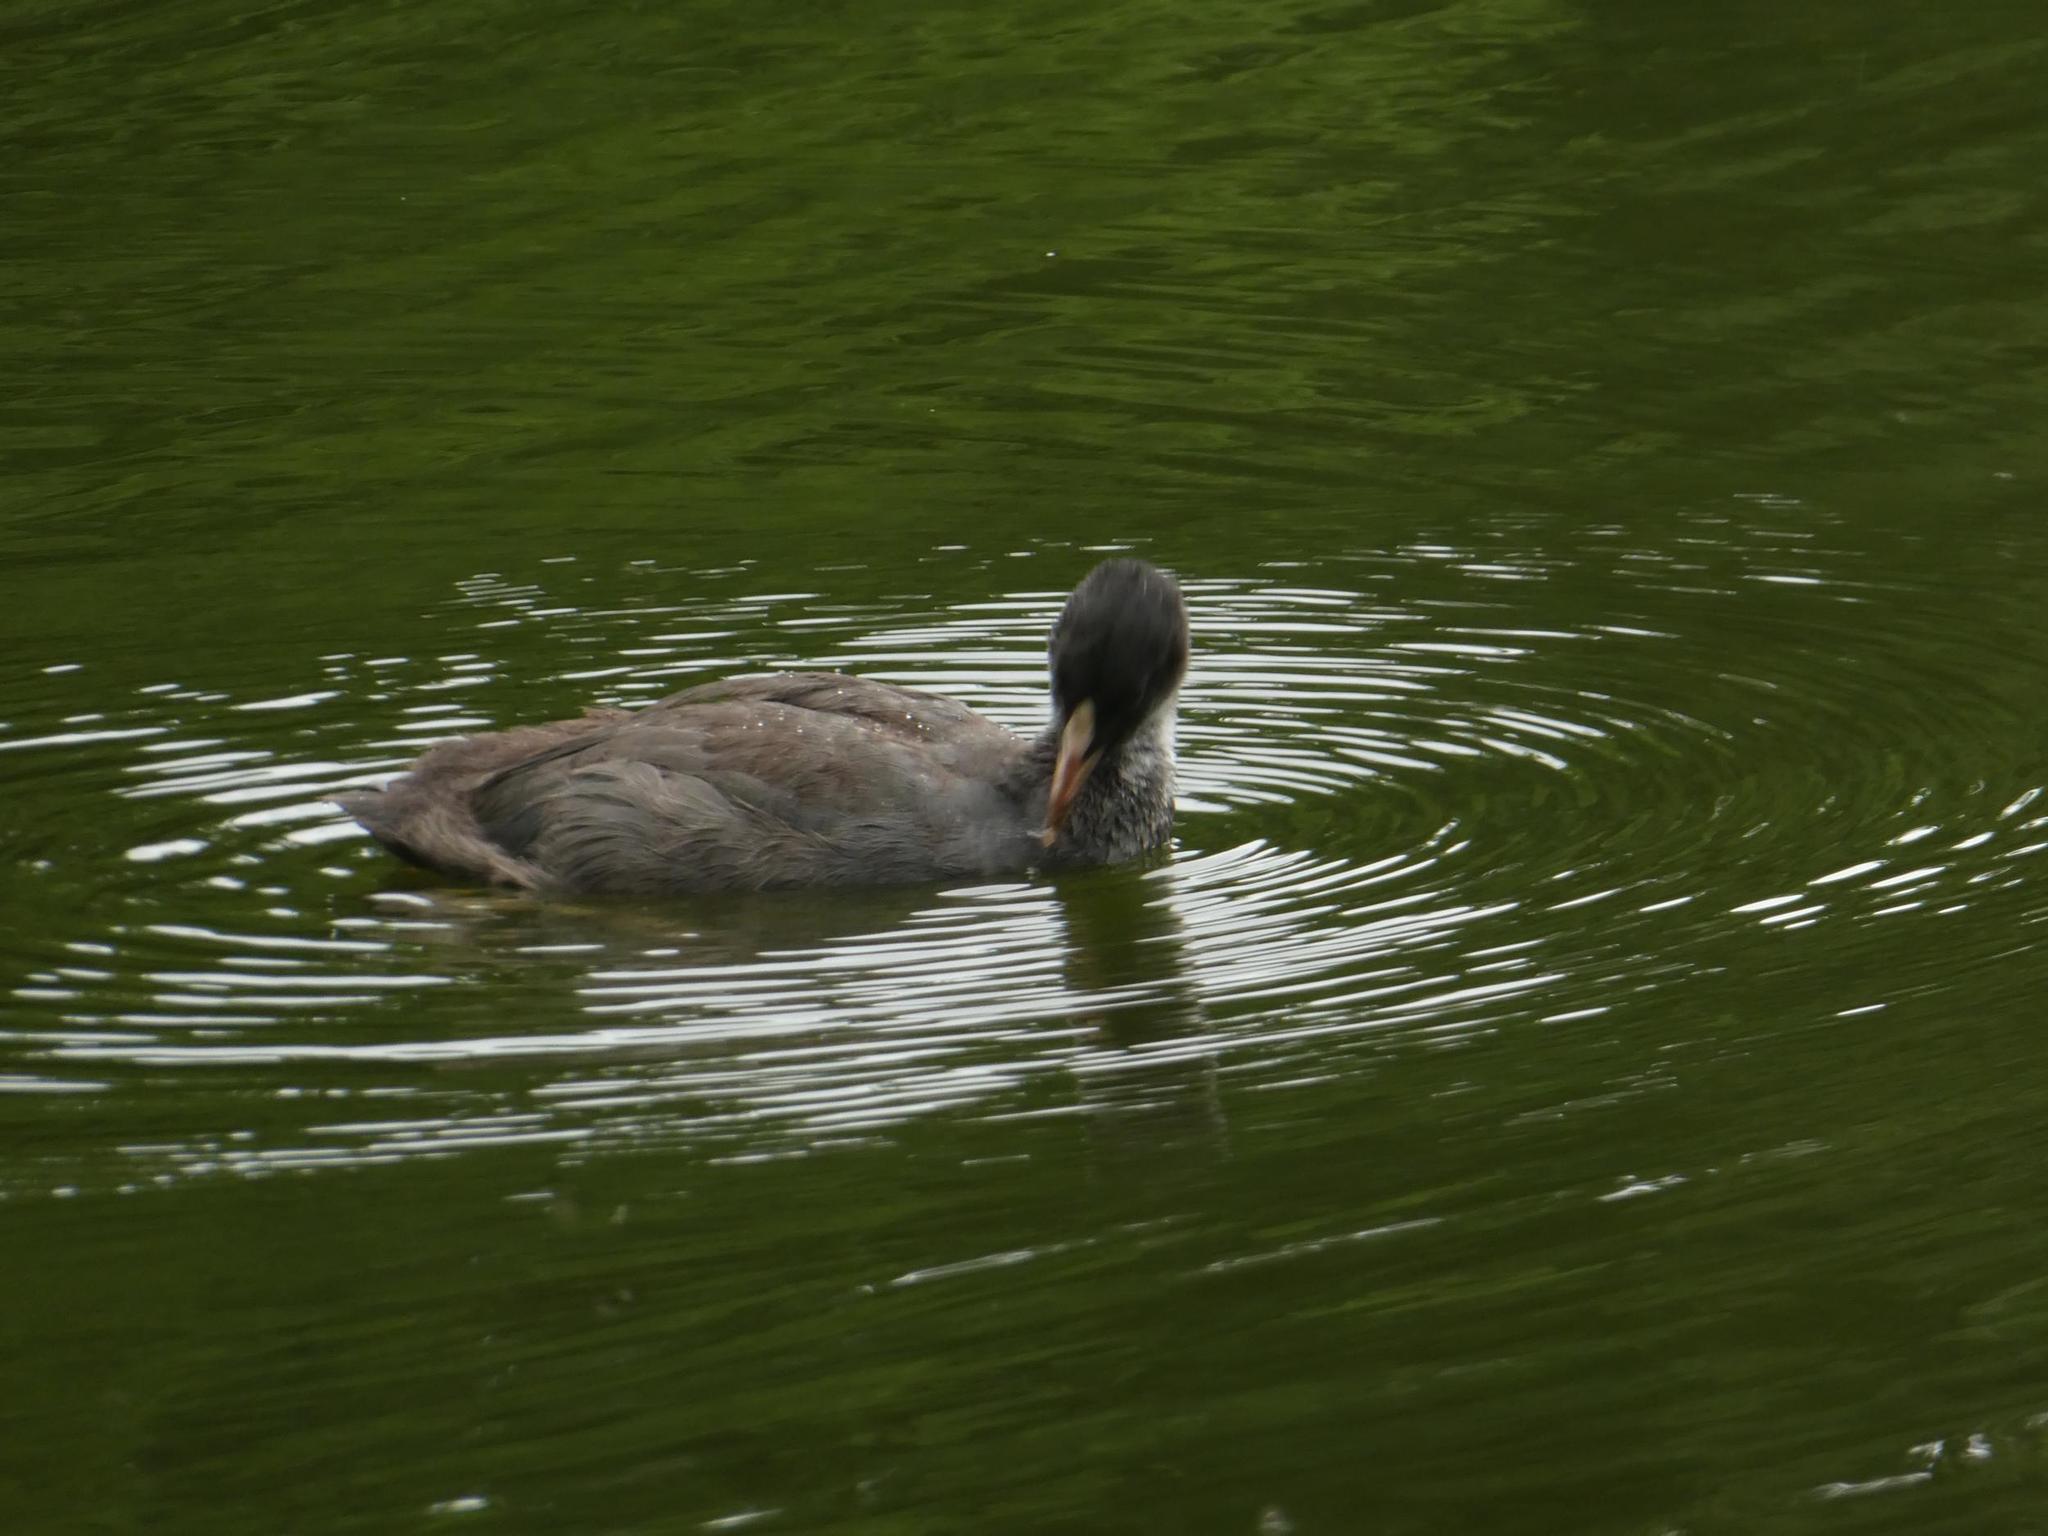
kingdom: Animalia
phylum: Chordata
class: Aves
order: Gruiformes
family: Rallidae
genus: Fulica
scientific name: Fulica atra
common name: Eurasian coot
